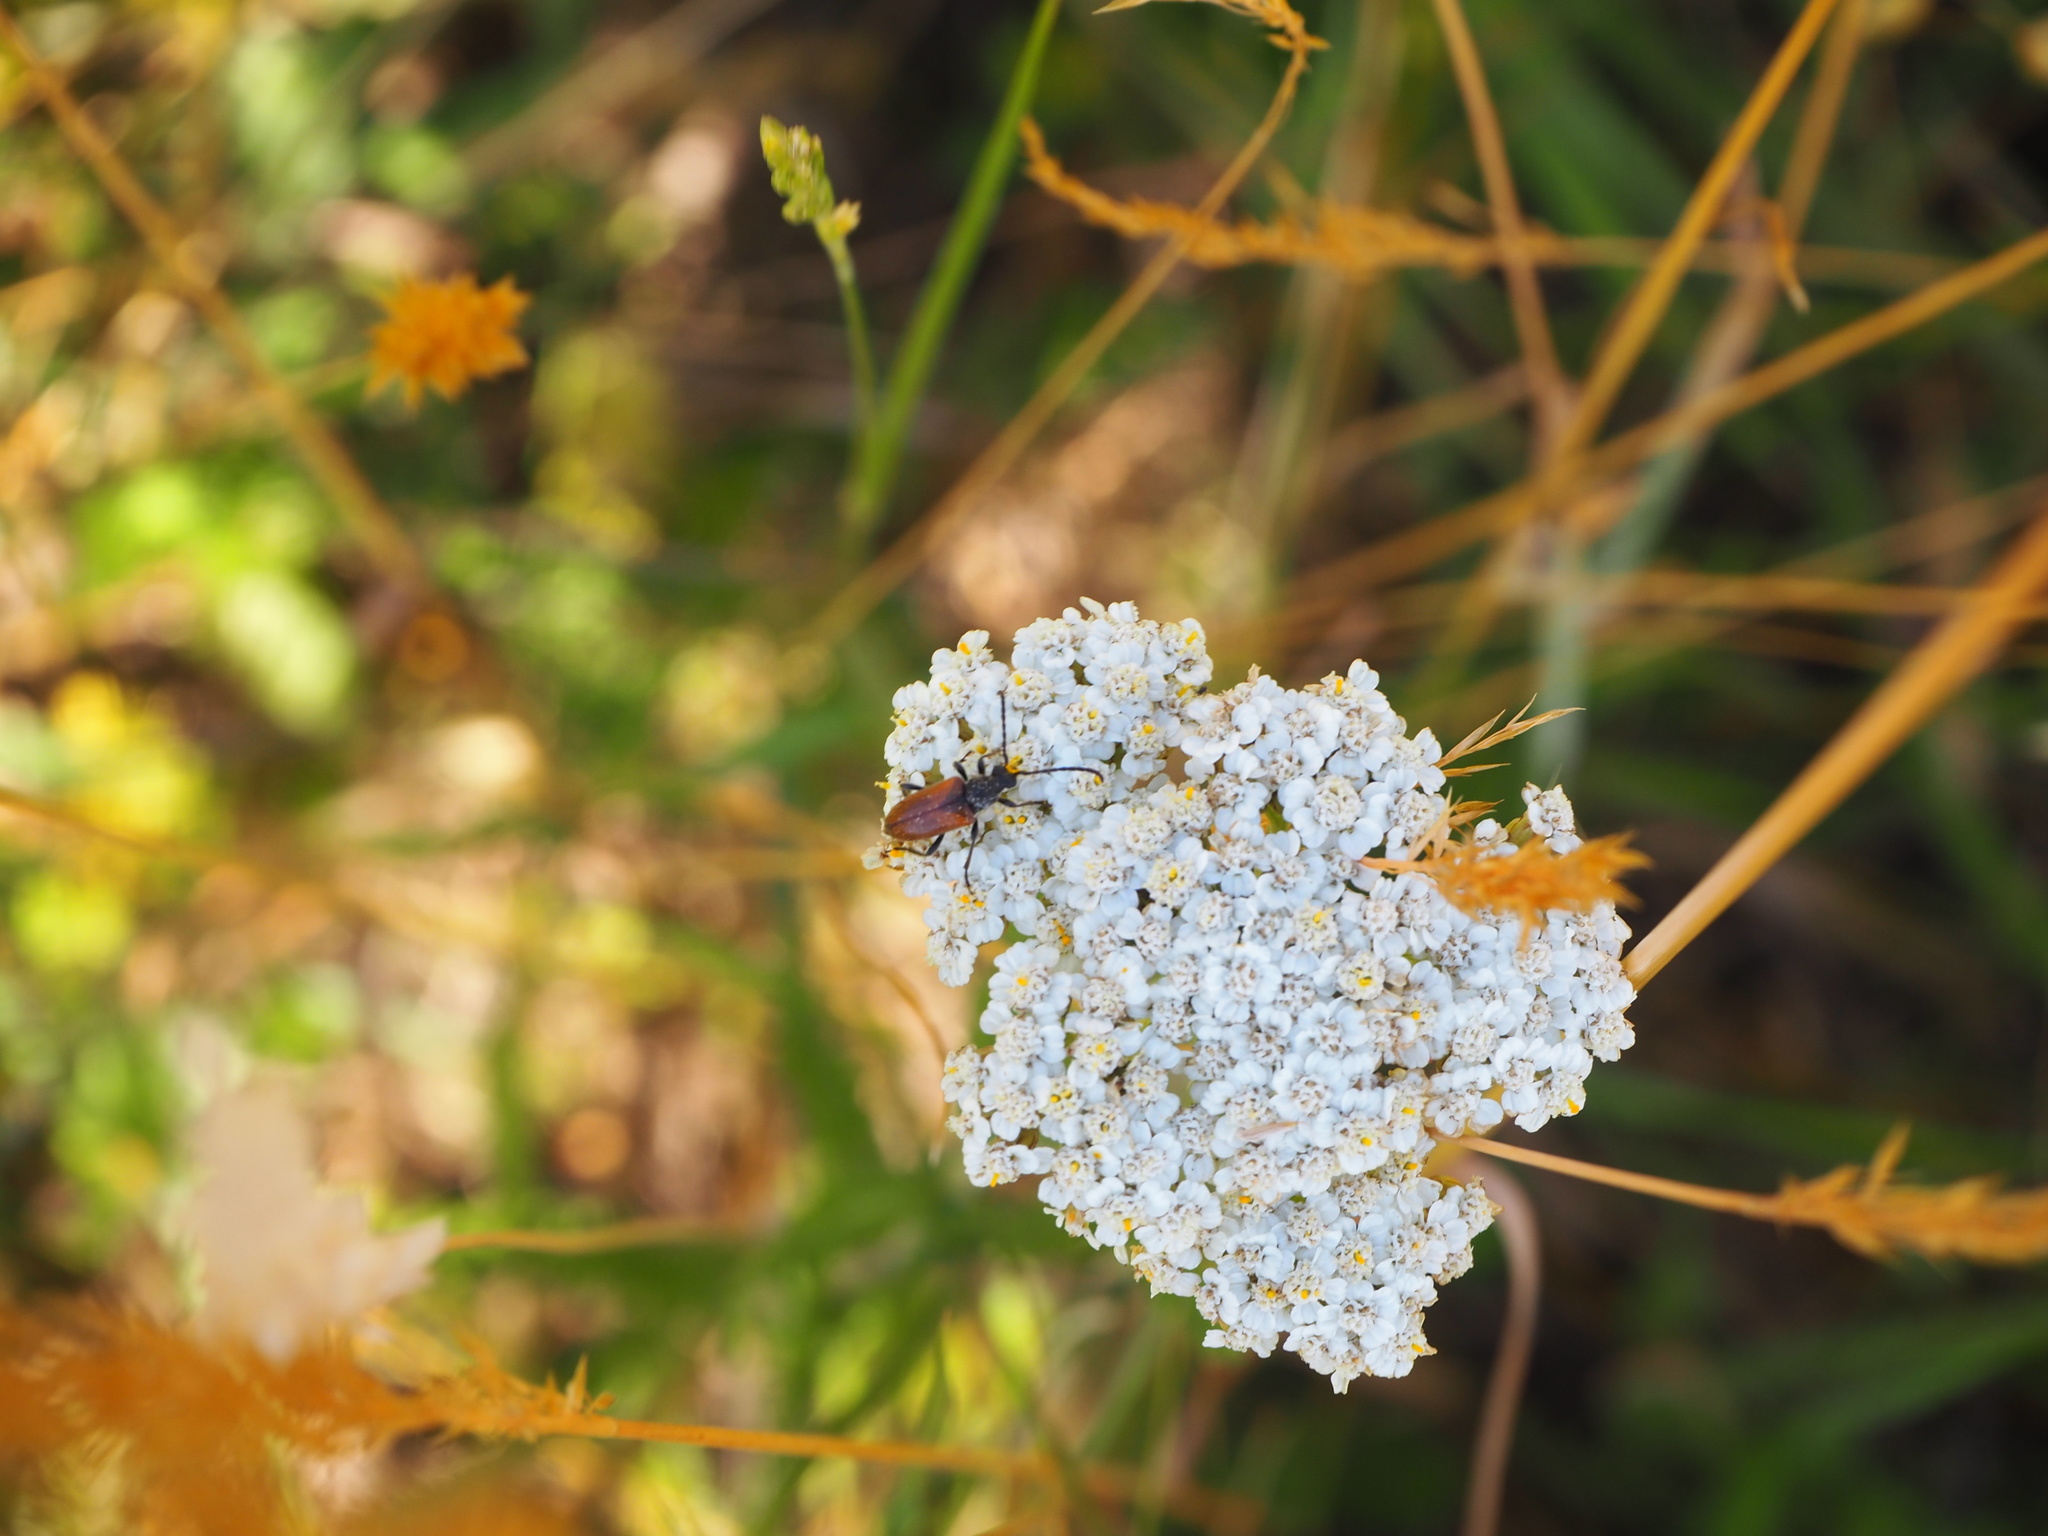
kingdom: Animalia
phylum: Arthropoda
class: Insecta
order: Coleoptera
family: Cerambycidae
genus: Pseudovadonia
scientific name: Pseudovadonia livida
